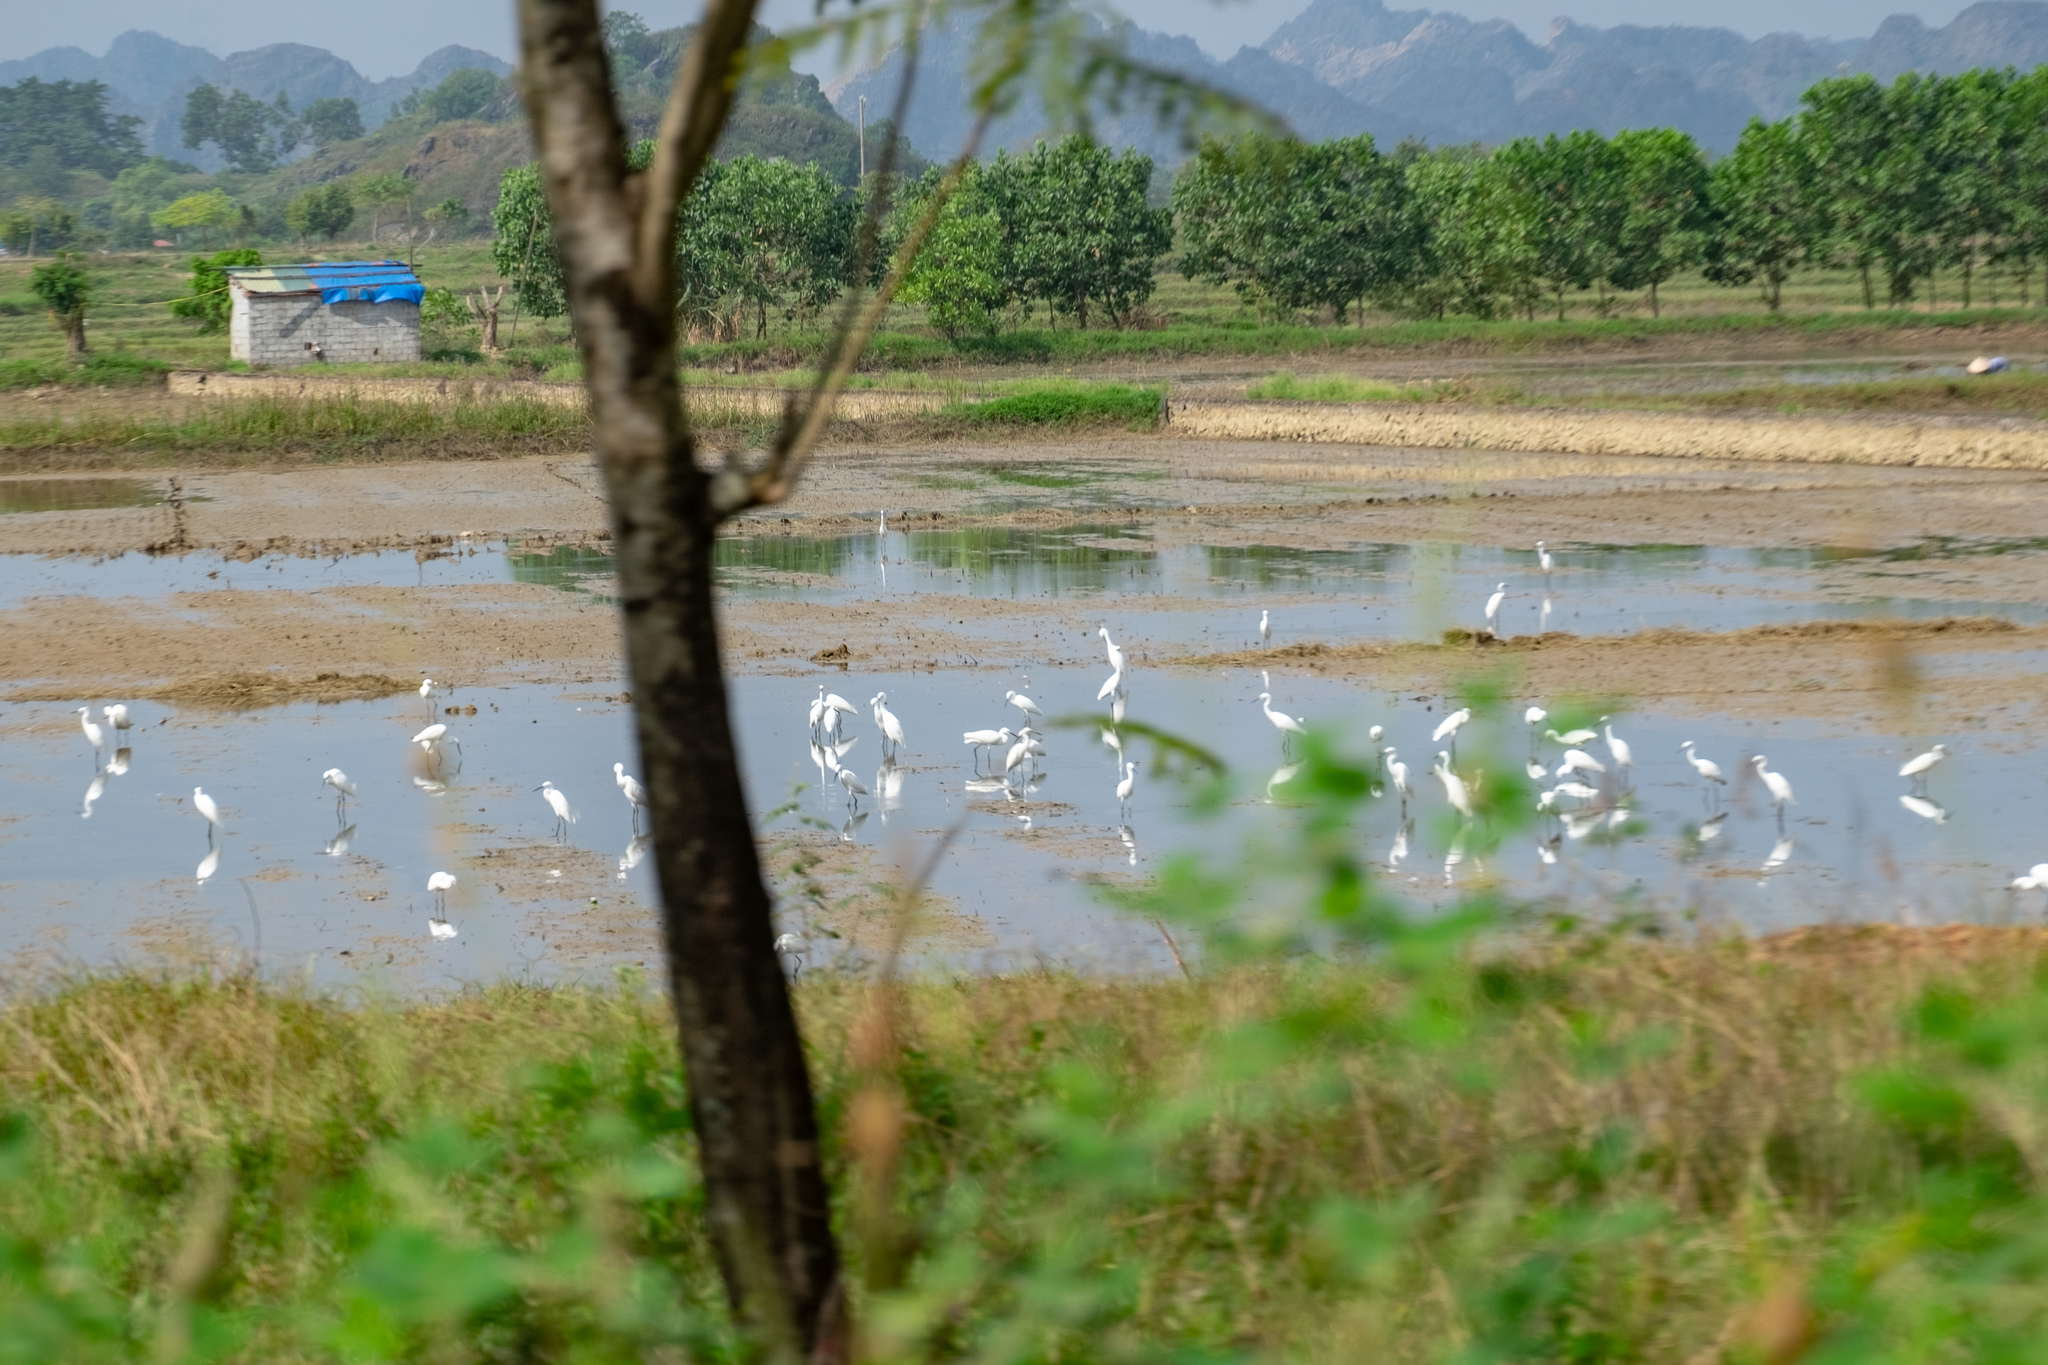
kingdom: Animalia
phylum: Chordata
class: Aves
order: Pelecaniformes
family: Ardeidae
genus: Egretta
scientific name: Egretta garzetta
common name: Little egret
